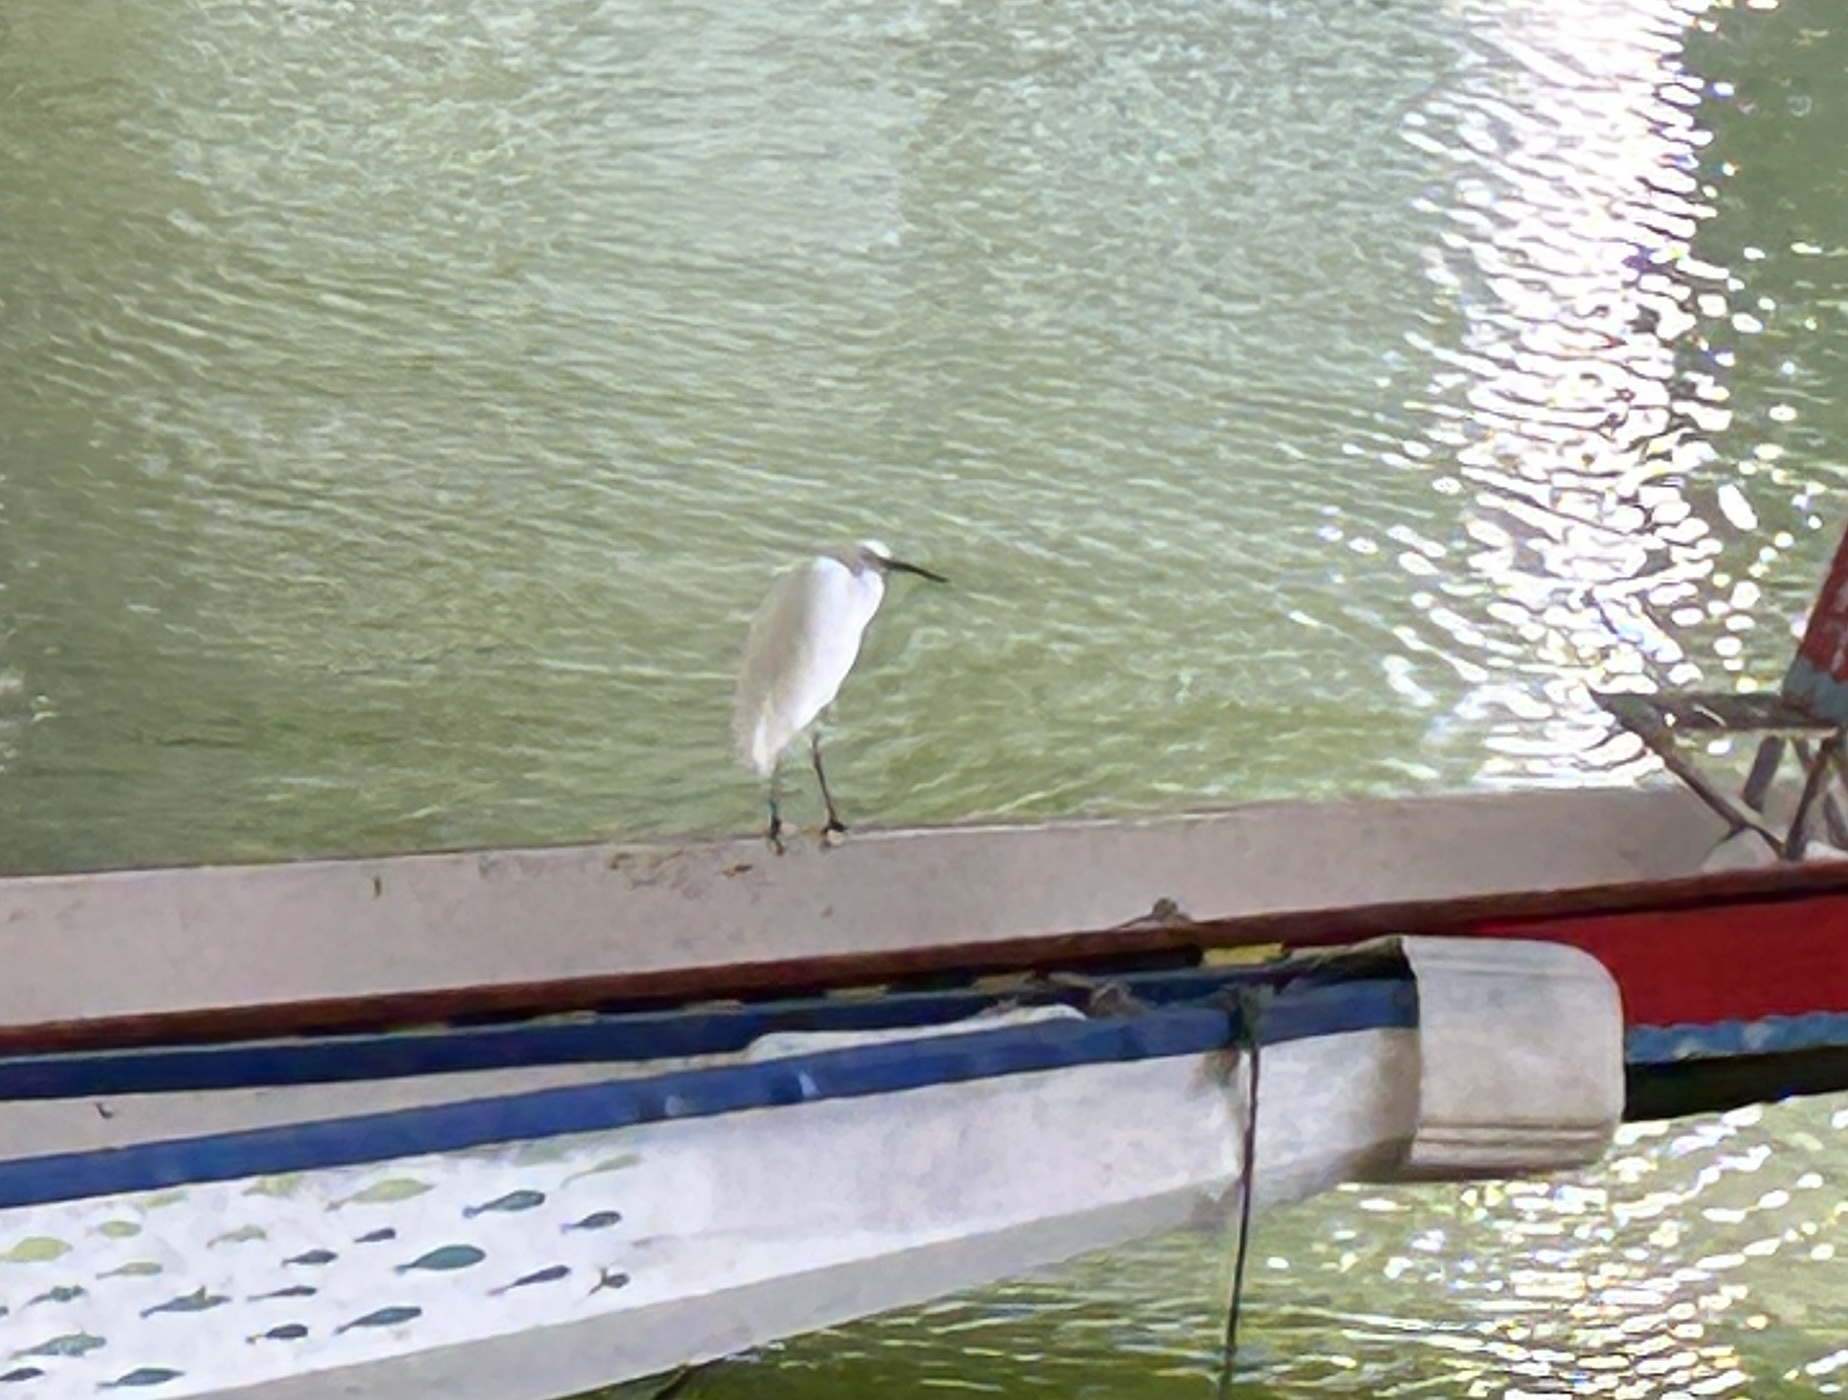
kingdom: Animalia
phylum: Chordata
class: Aves
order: Pelecaniformes
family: Ardeidae
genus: Egretta
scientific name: Egretta garzetta
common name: Little egret
